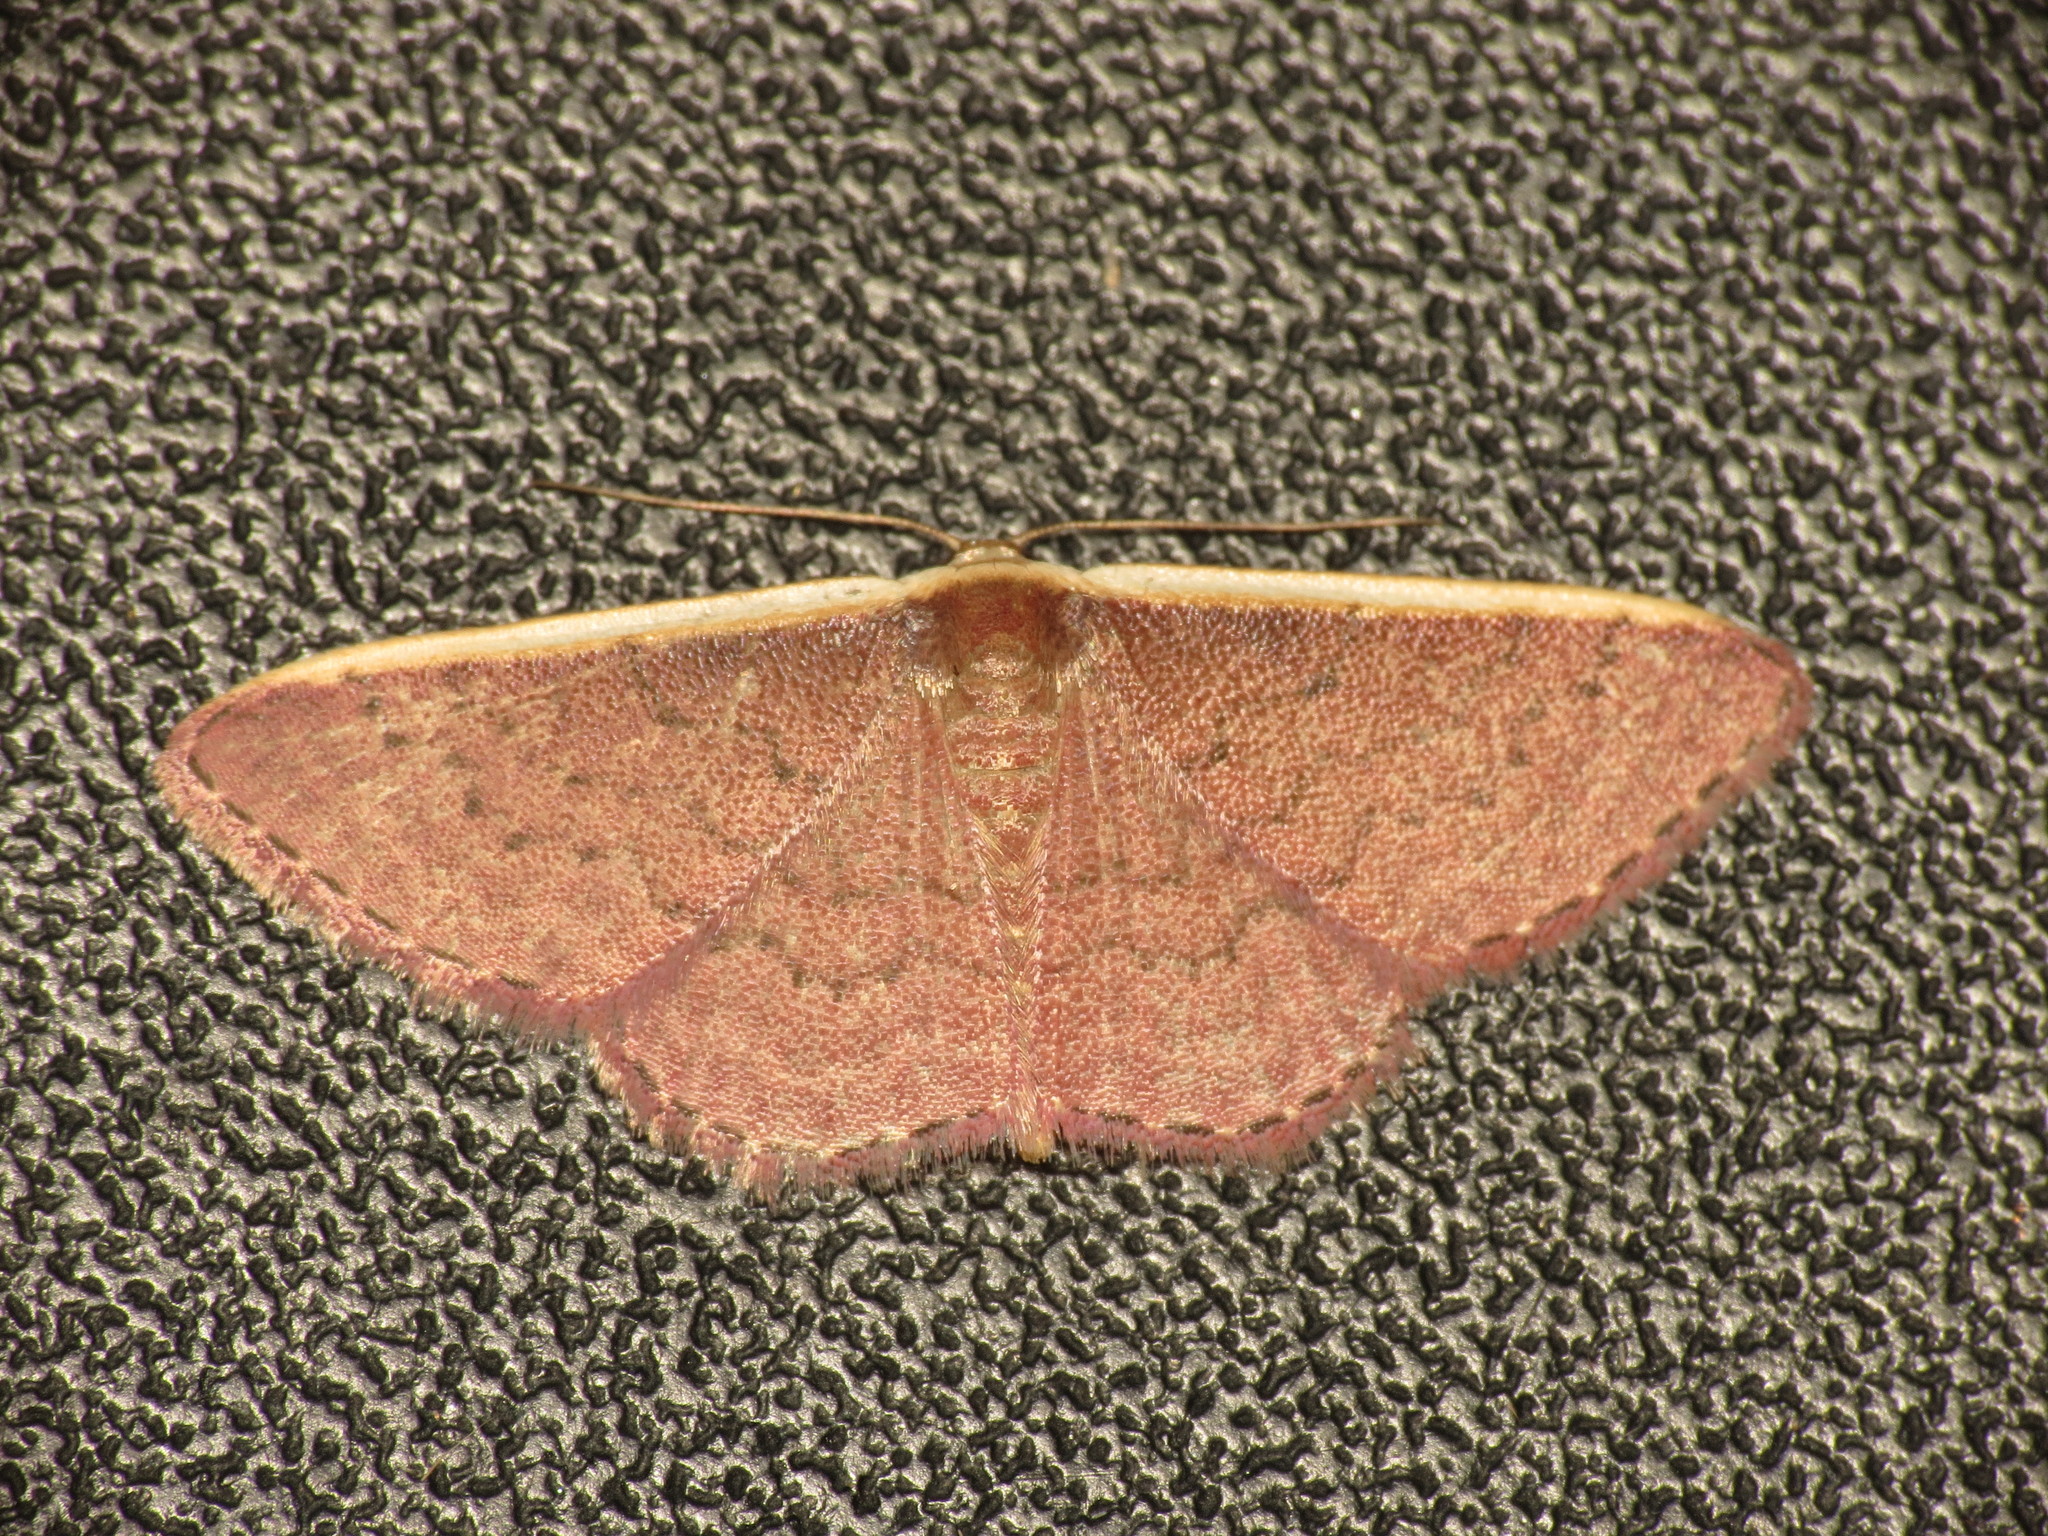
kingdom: Animalia
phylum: Arthropoda
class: Insecta
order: Lepidoptera
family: Geometridae
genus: Idaea
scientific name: Idaea costaria
